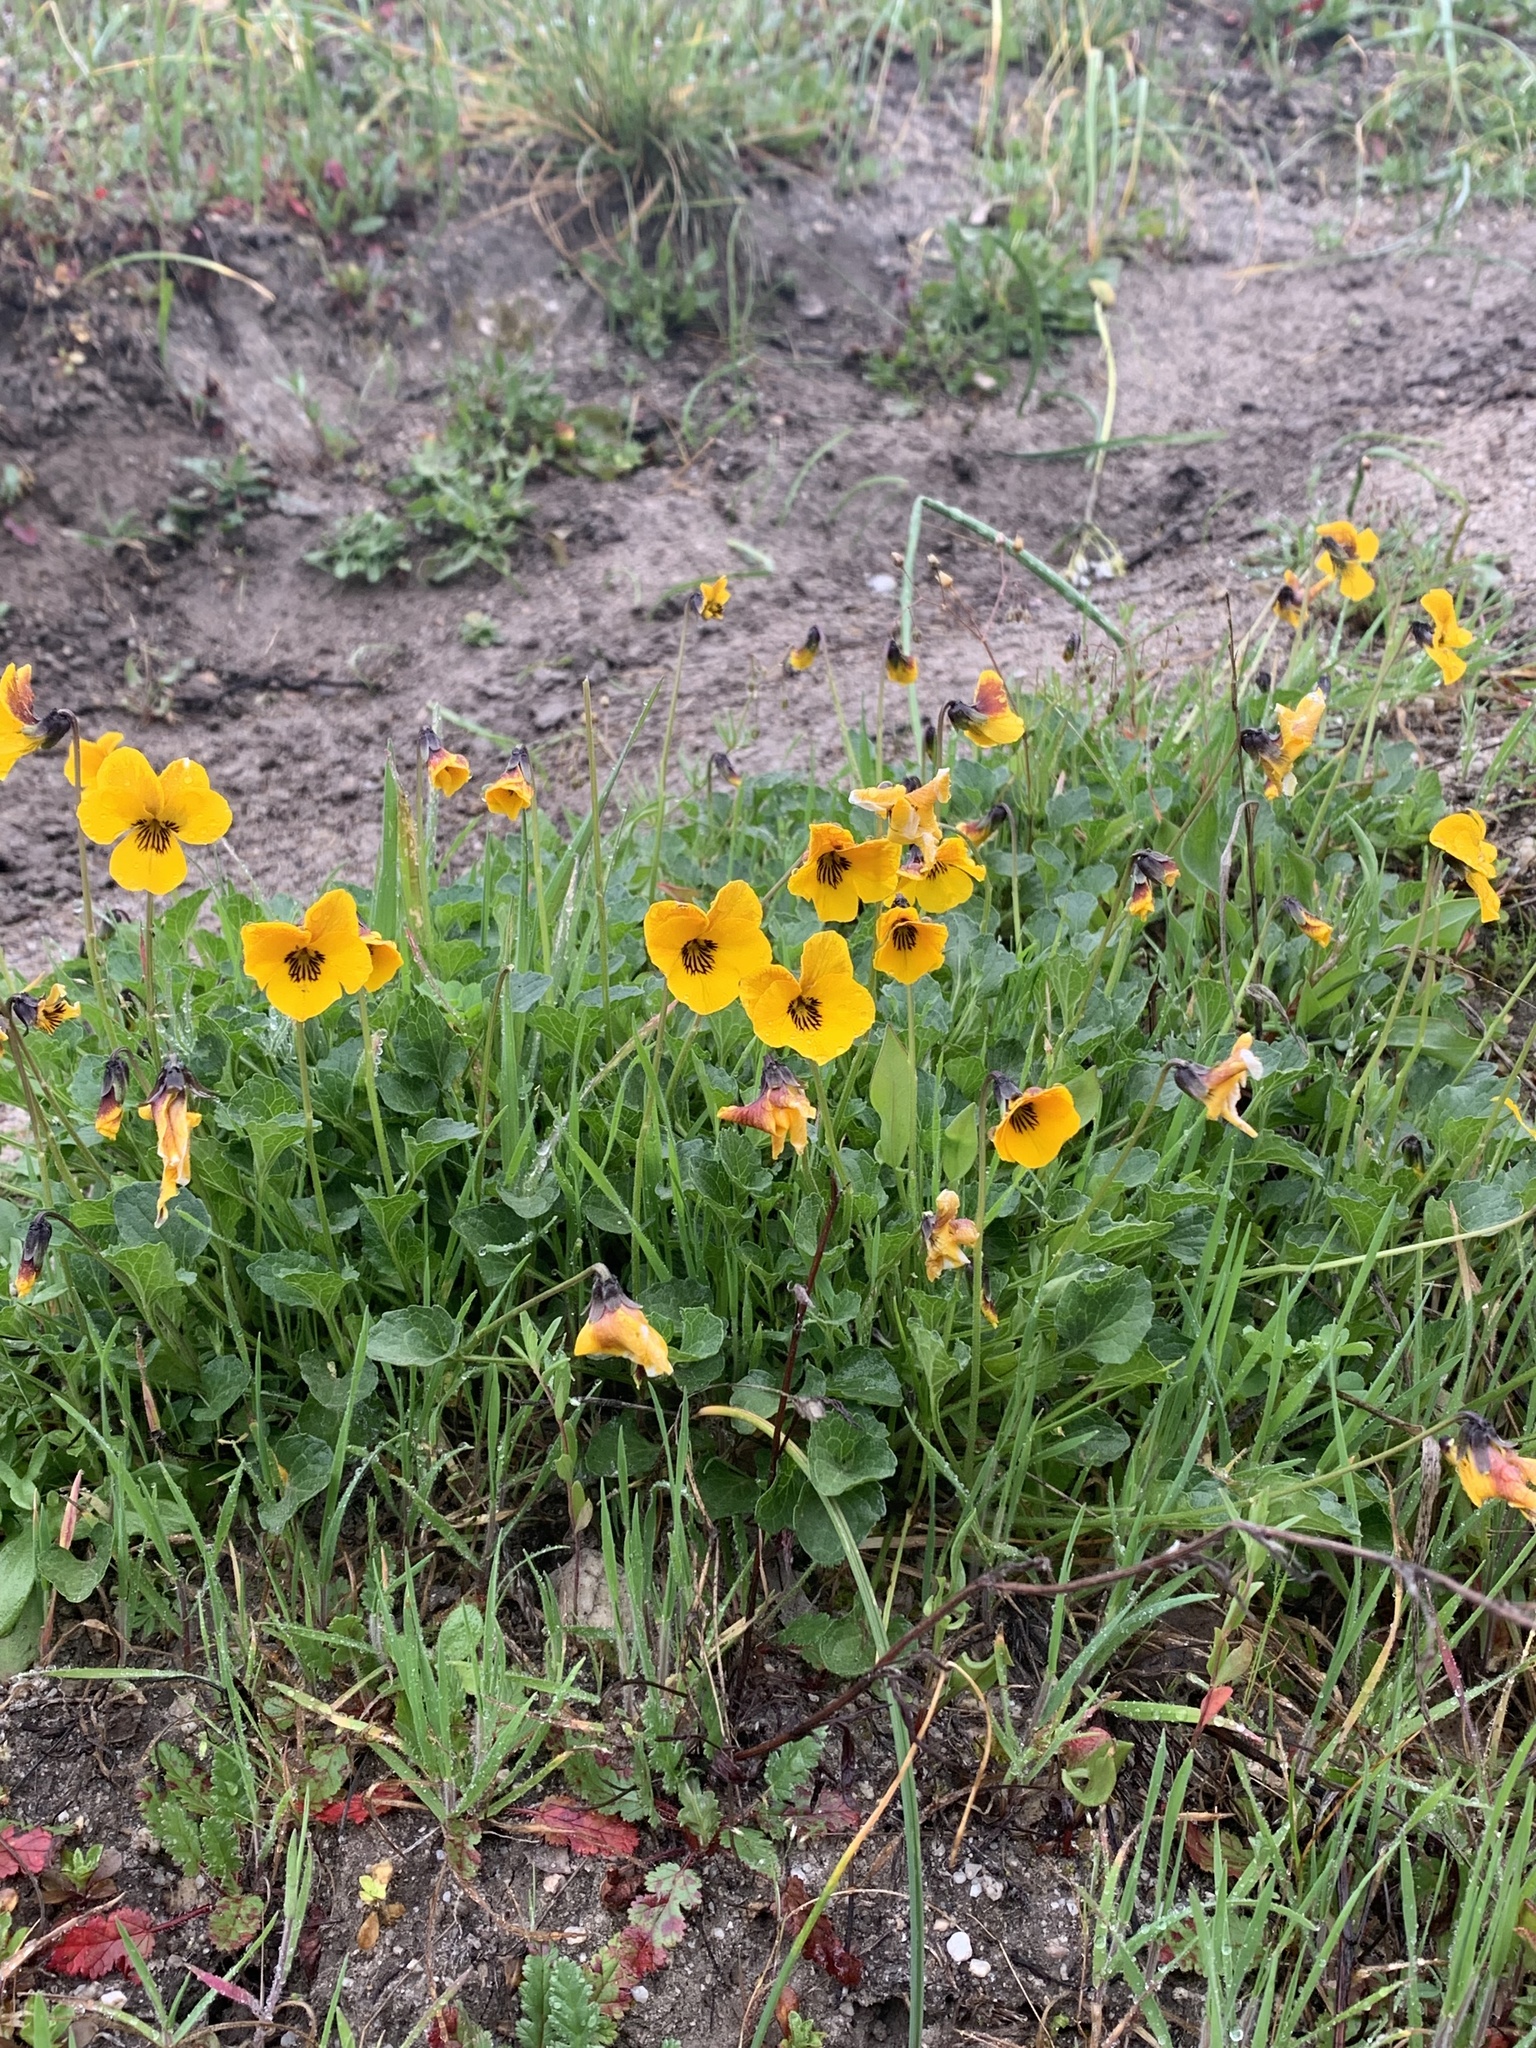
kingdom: Plantae
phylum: Tracheophyta
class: Magnoliopsida
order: Malpighiales
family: Violaceae
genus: Viola
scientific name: Viola pedunculata
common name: California golden violet
